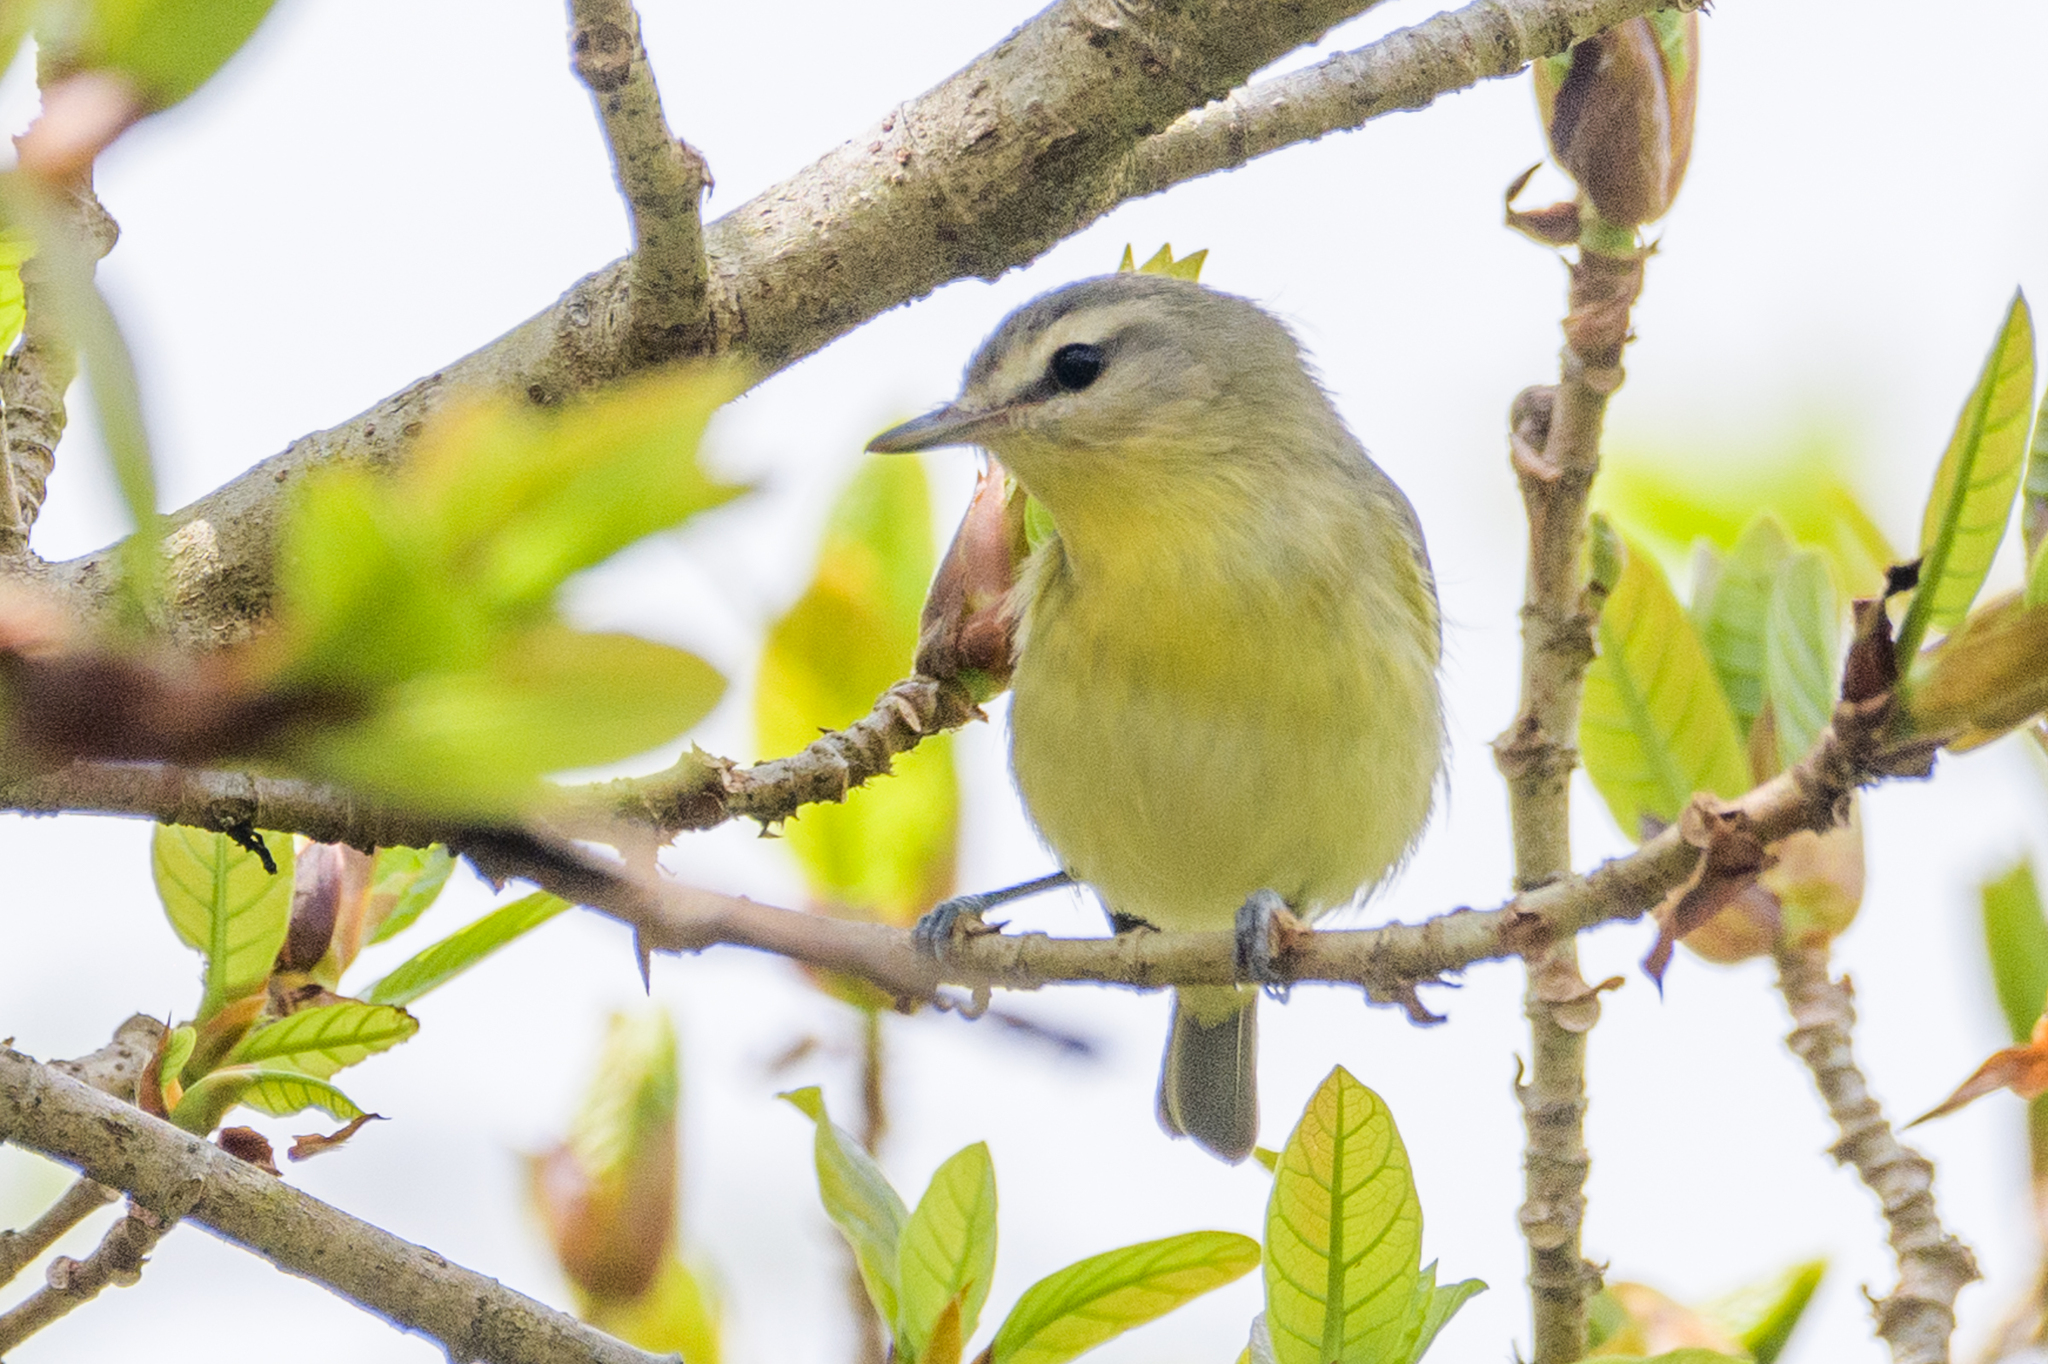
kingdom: Animalia
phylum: Chordata
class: Aves
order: Passeriformes
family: Vireonidae
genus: Vireo
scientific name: Vireo philadelphicus
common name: Philadelphia vireo
